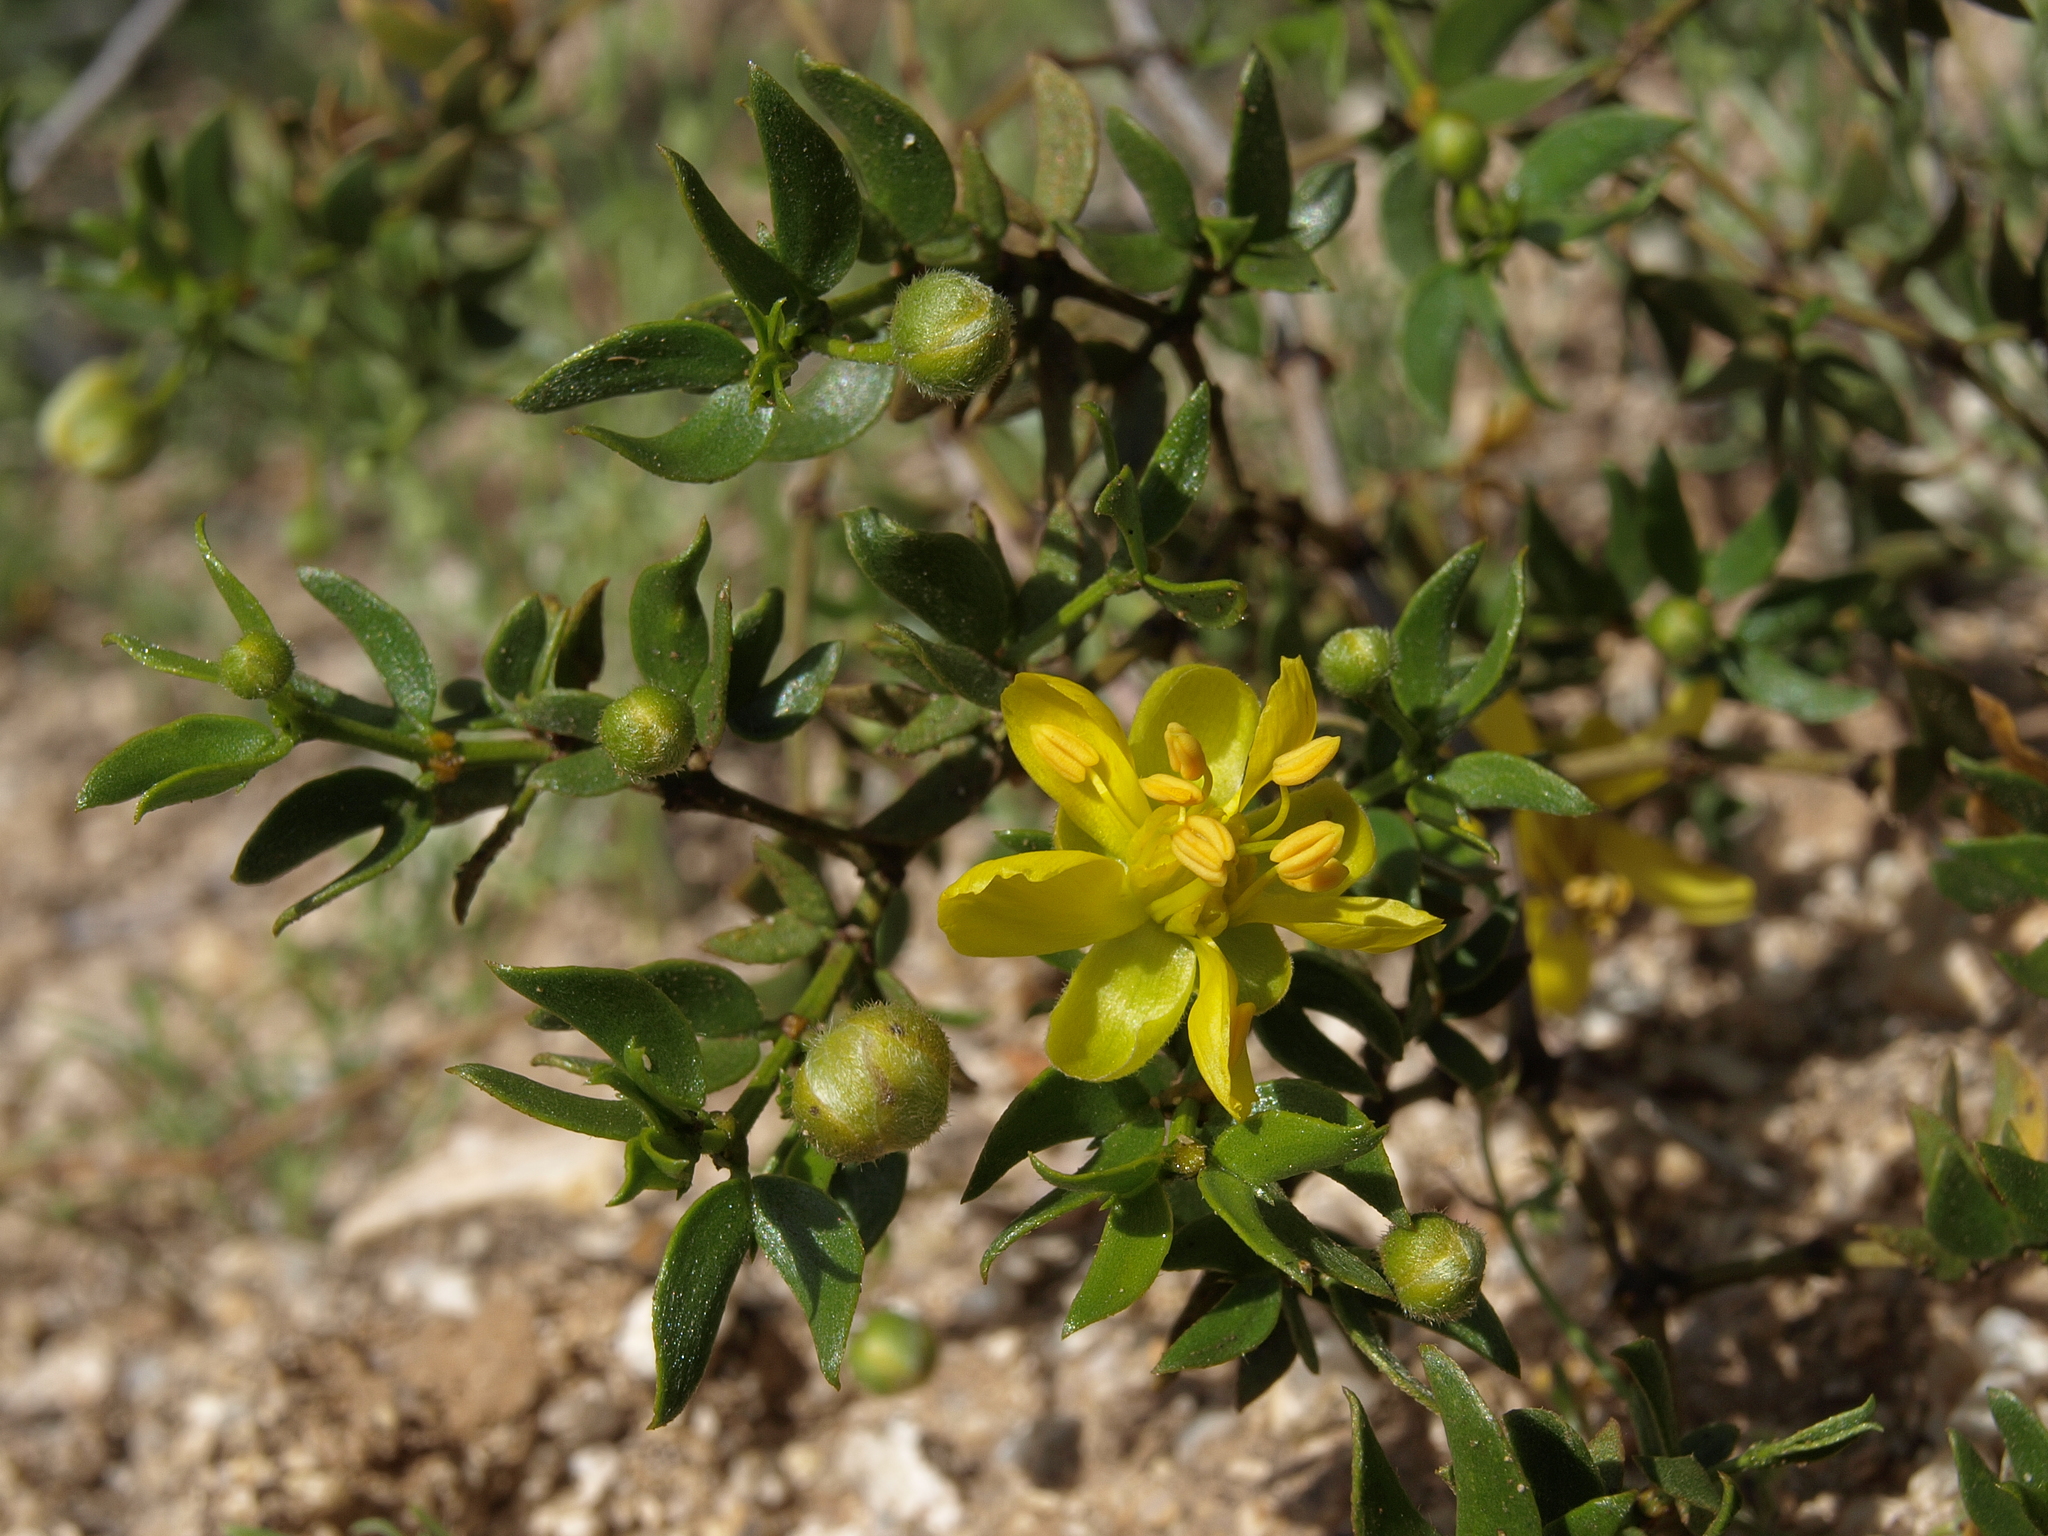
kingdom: Plantae
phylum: Tracheophyta
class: Magnoliopsida
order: Zygophyllales
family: Zygophyllaceae
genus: Larrea
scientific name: Larrea tridentata
